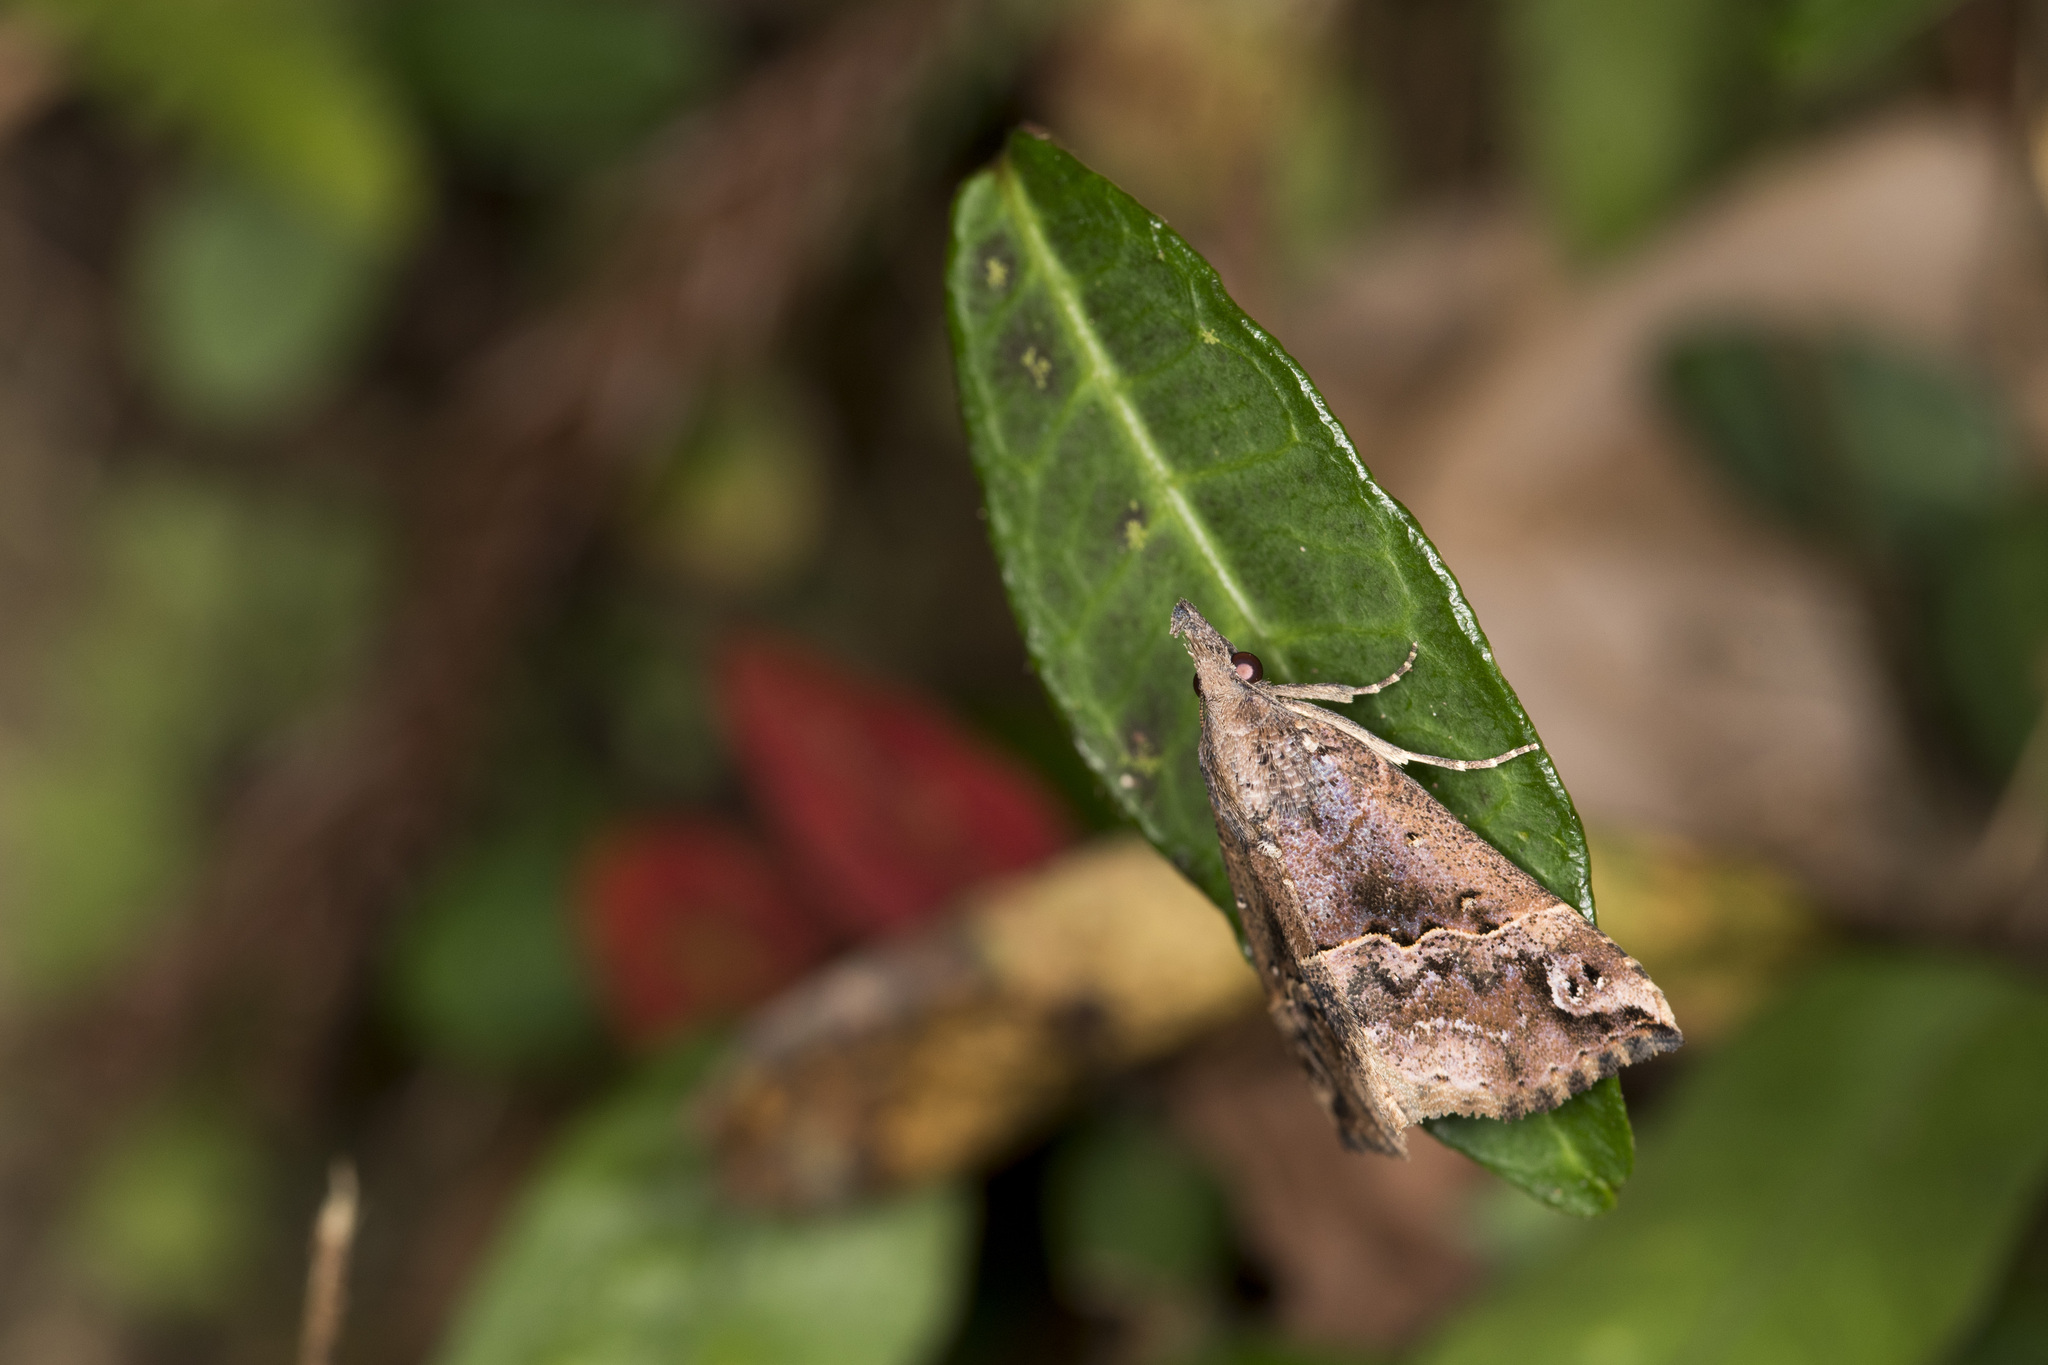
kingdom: Animalia
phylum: Arthropoda
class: Insecta
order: Lepidoptera
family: Erebidae
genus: Hypena
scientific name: Hypena
